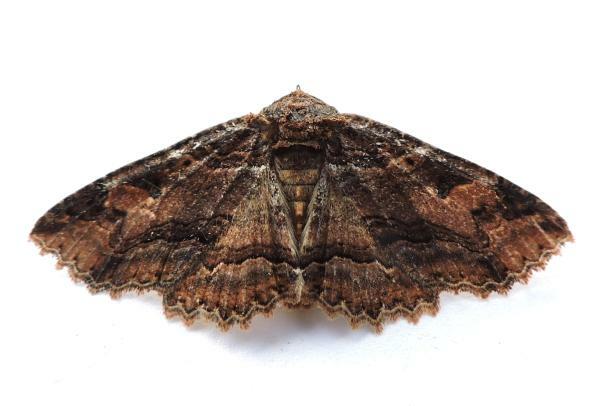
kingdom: Animalia
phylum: Arthropoda
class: Insecta
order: Lepidoptera
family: Erebidae
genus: Zale
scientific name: Zale minerea
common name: Colorful zale moth
